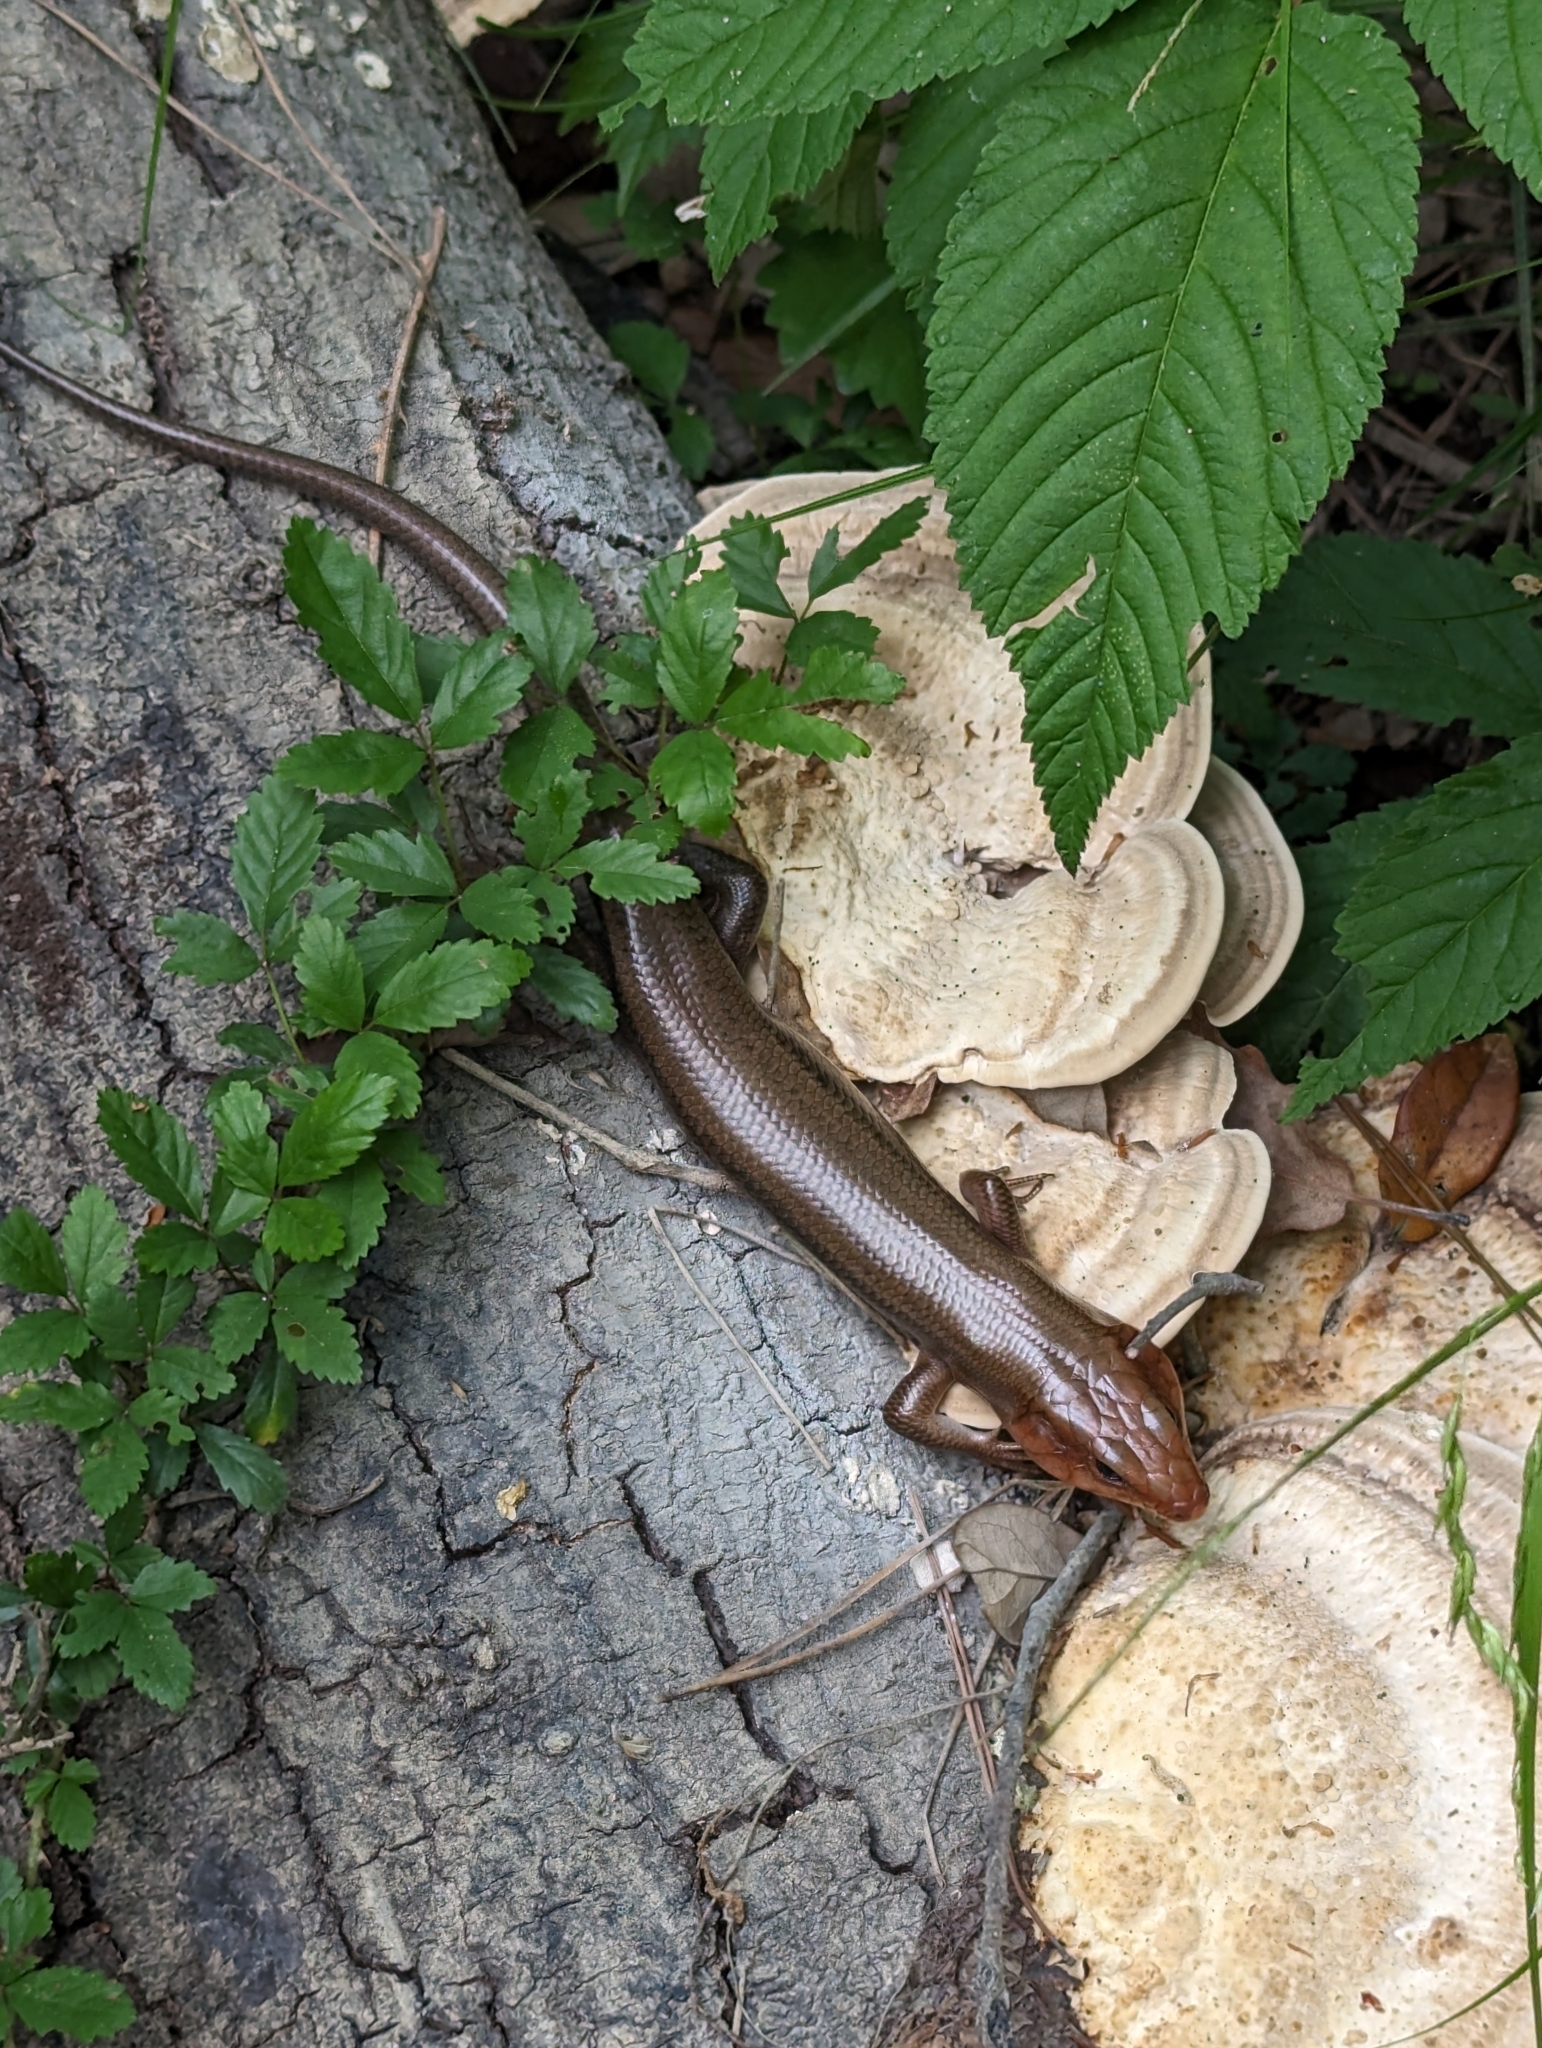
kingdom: Animalia
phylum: Chordata
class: Squamata
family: Scincidae
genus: Plestiodon
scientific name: Plestiodon laticeps
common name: Broadhead skink
